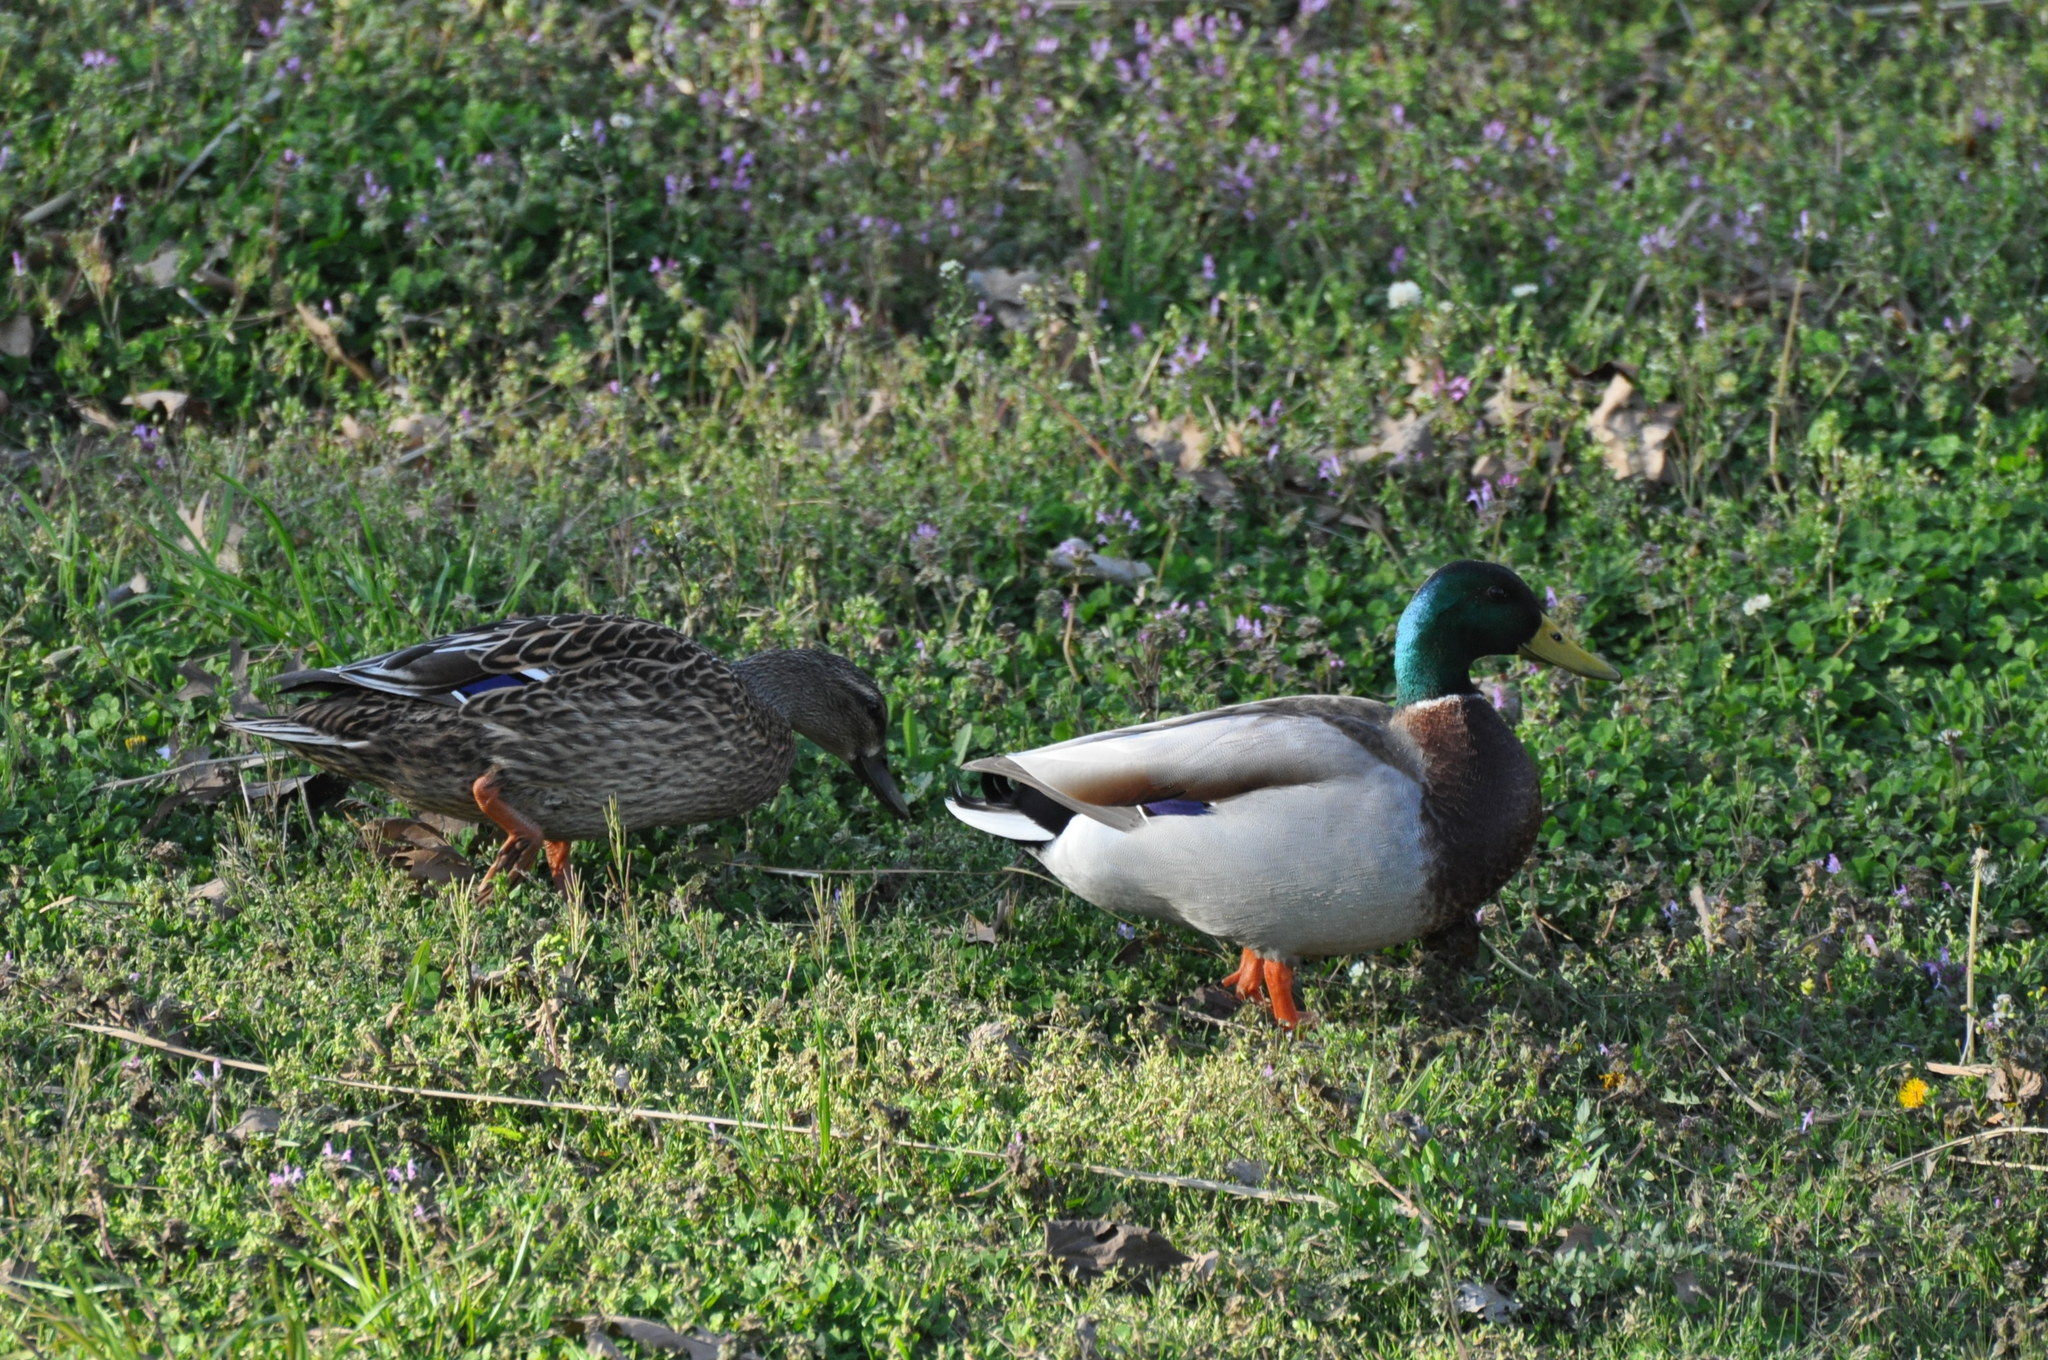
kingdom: Animalia
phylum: Chordata
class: Aves
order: Anseriformes
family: Anatidae
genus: Anas
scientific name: Anas platyrhynchos
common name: Mallard
